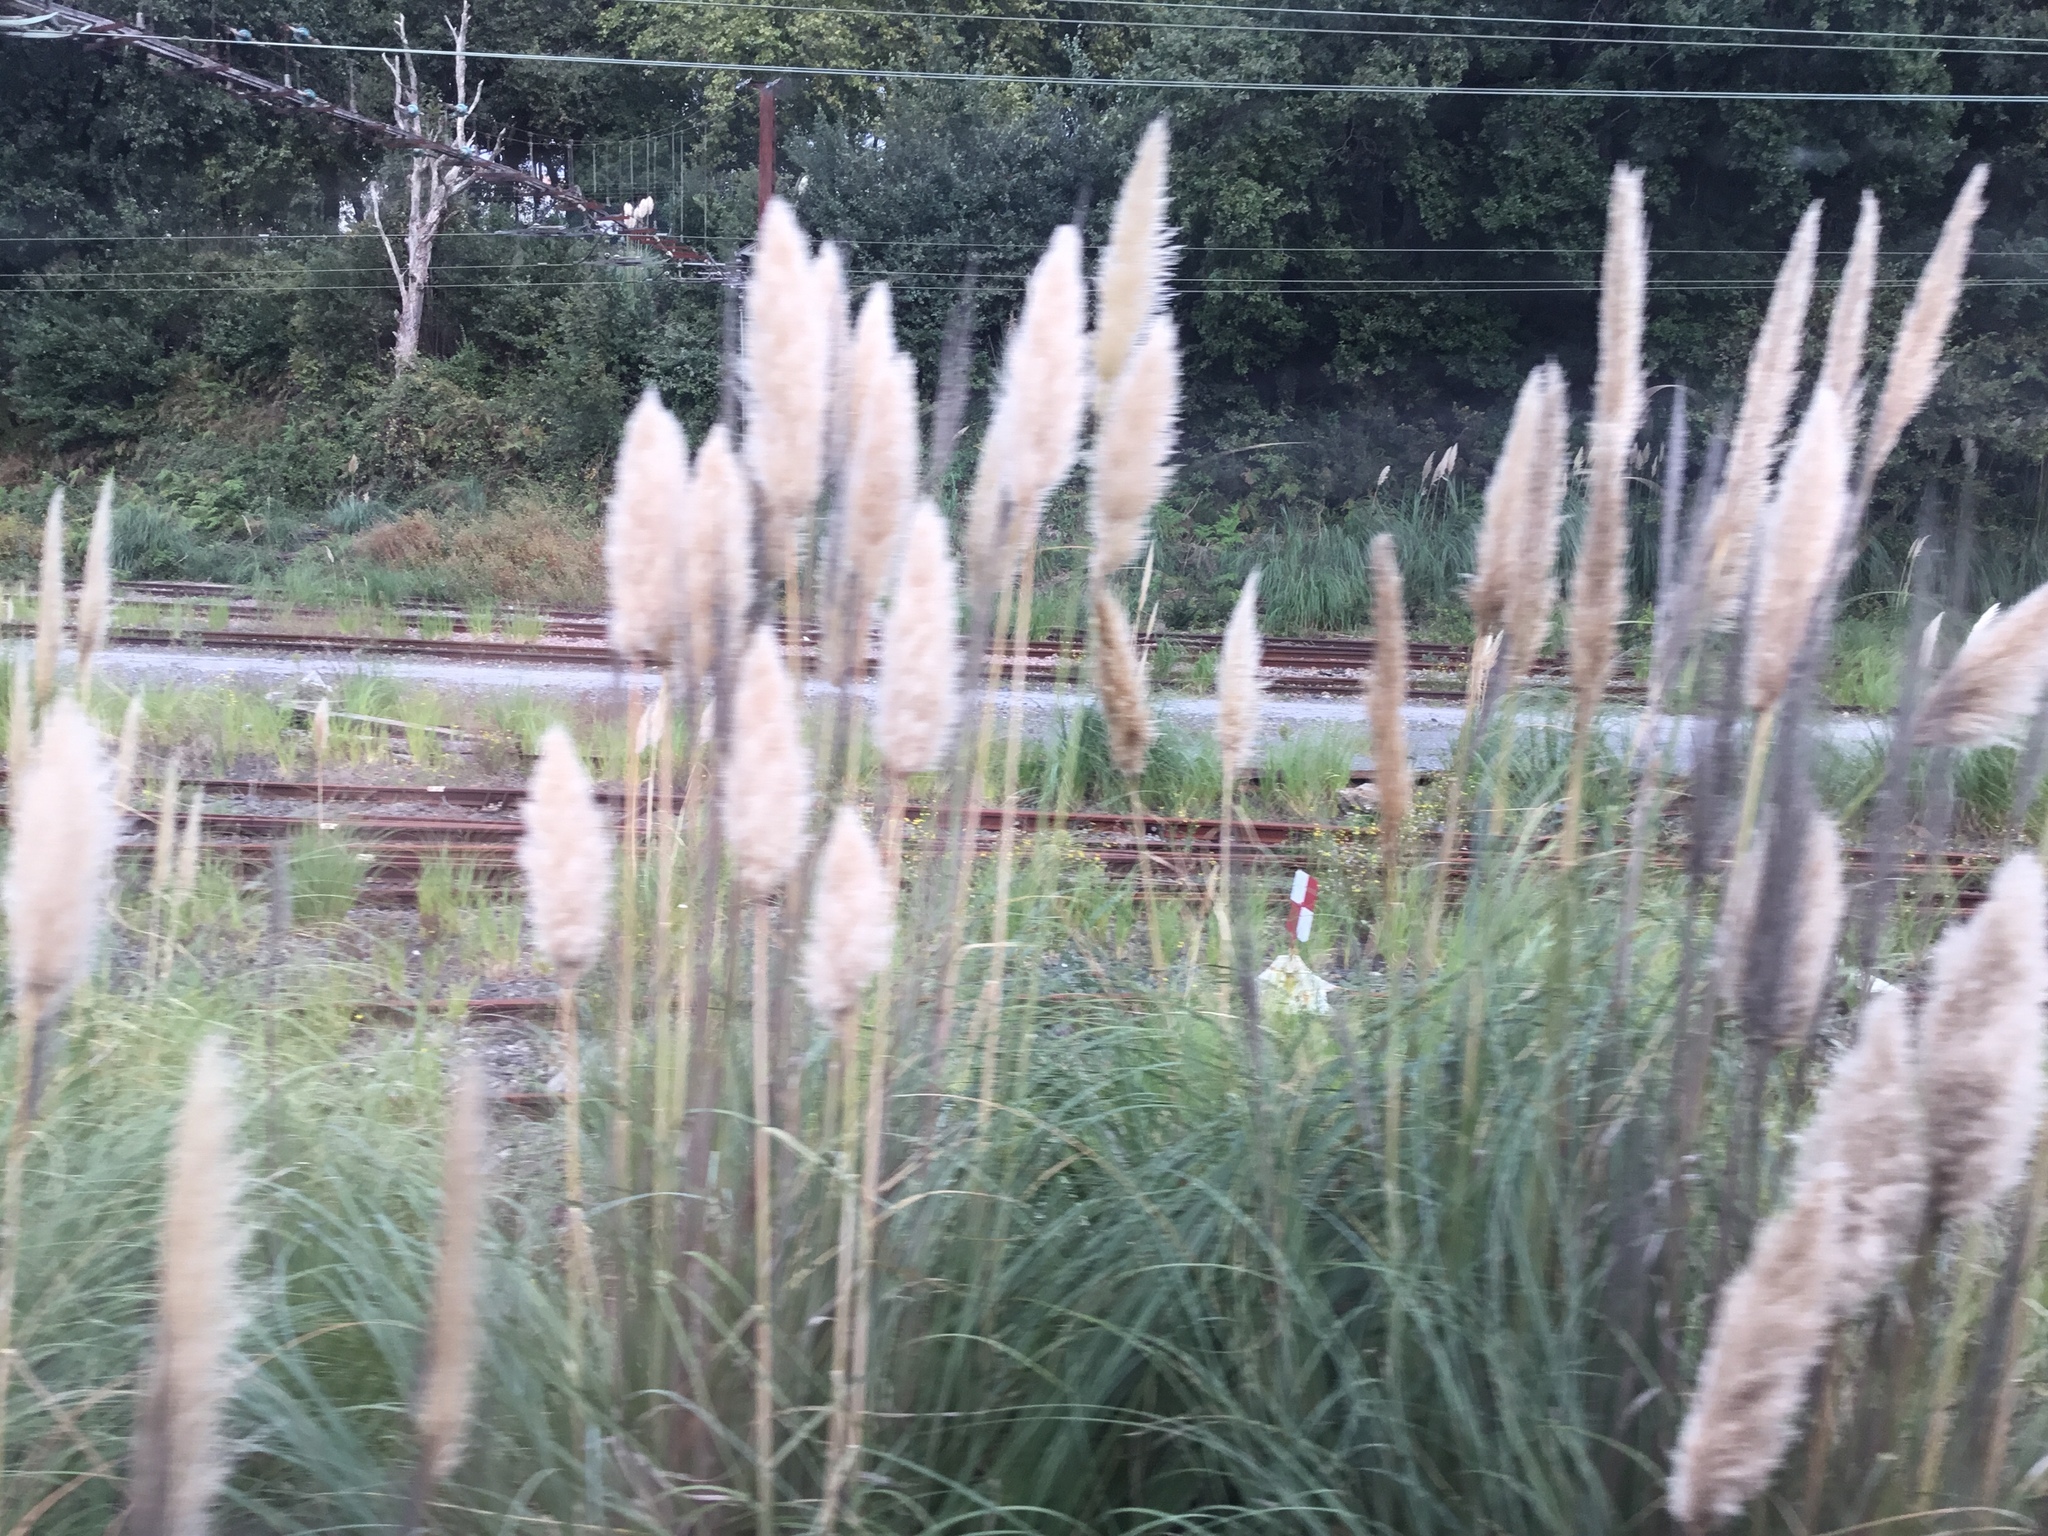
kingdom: Plantae
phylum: Tracheophyta
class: Liliopsida
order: Poales
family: Poaceae
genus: Cortaderia
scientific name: Cortaderia selloana
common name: Uruguayan pampas grass
